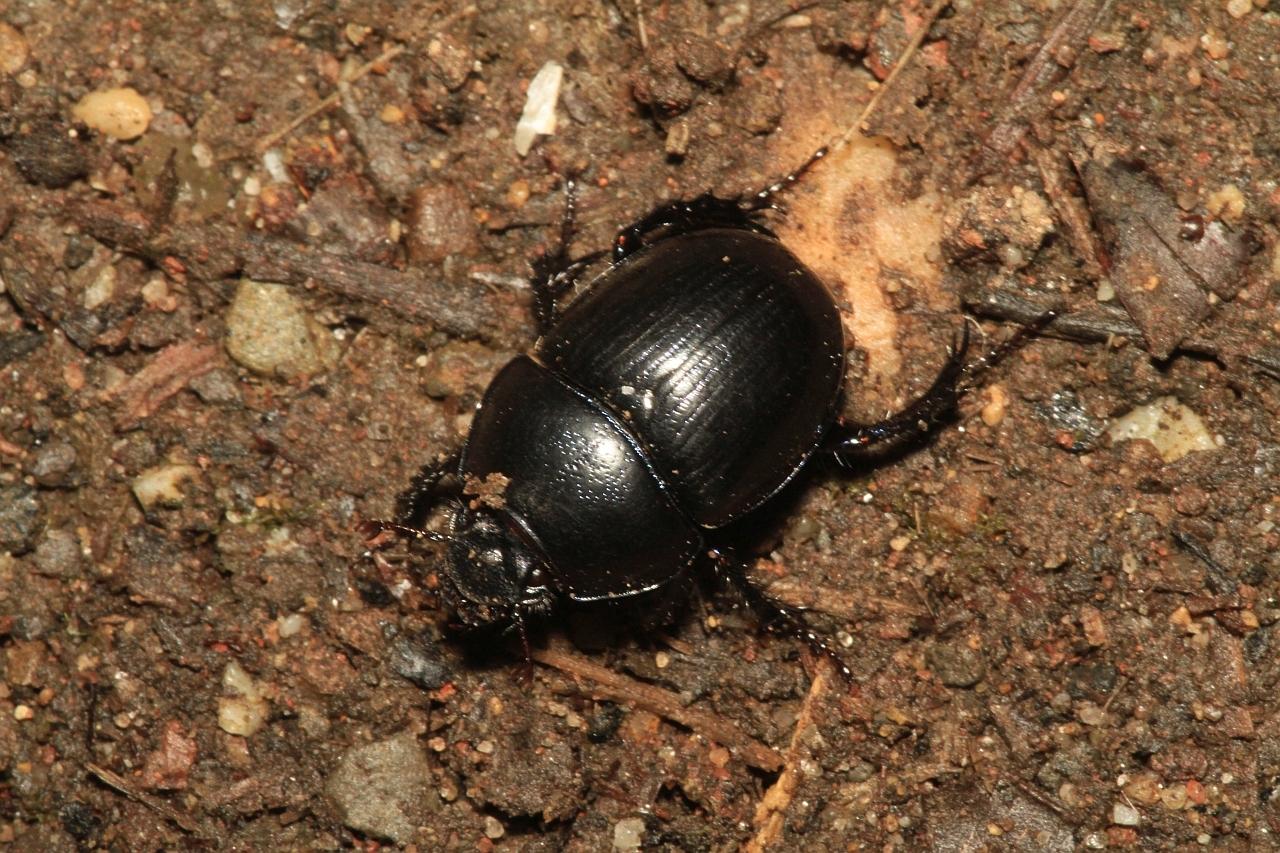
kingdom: Animalia
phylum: Arthropoda
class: Insecta
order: Coleoptera
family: Geotrupidae
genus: Anoplotrupes
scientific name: Anoplotrupes stercorosus
